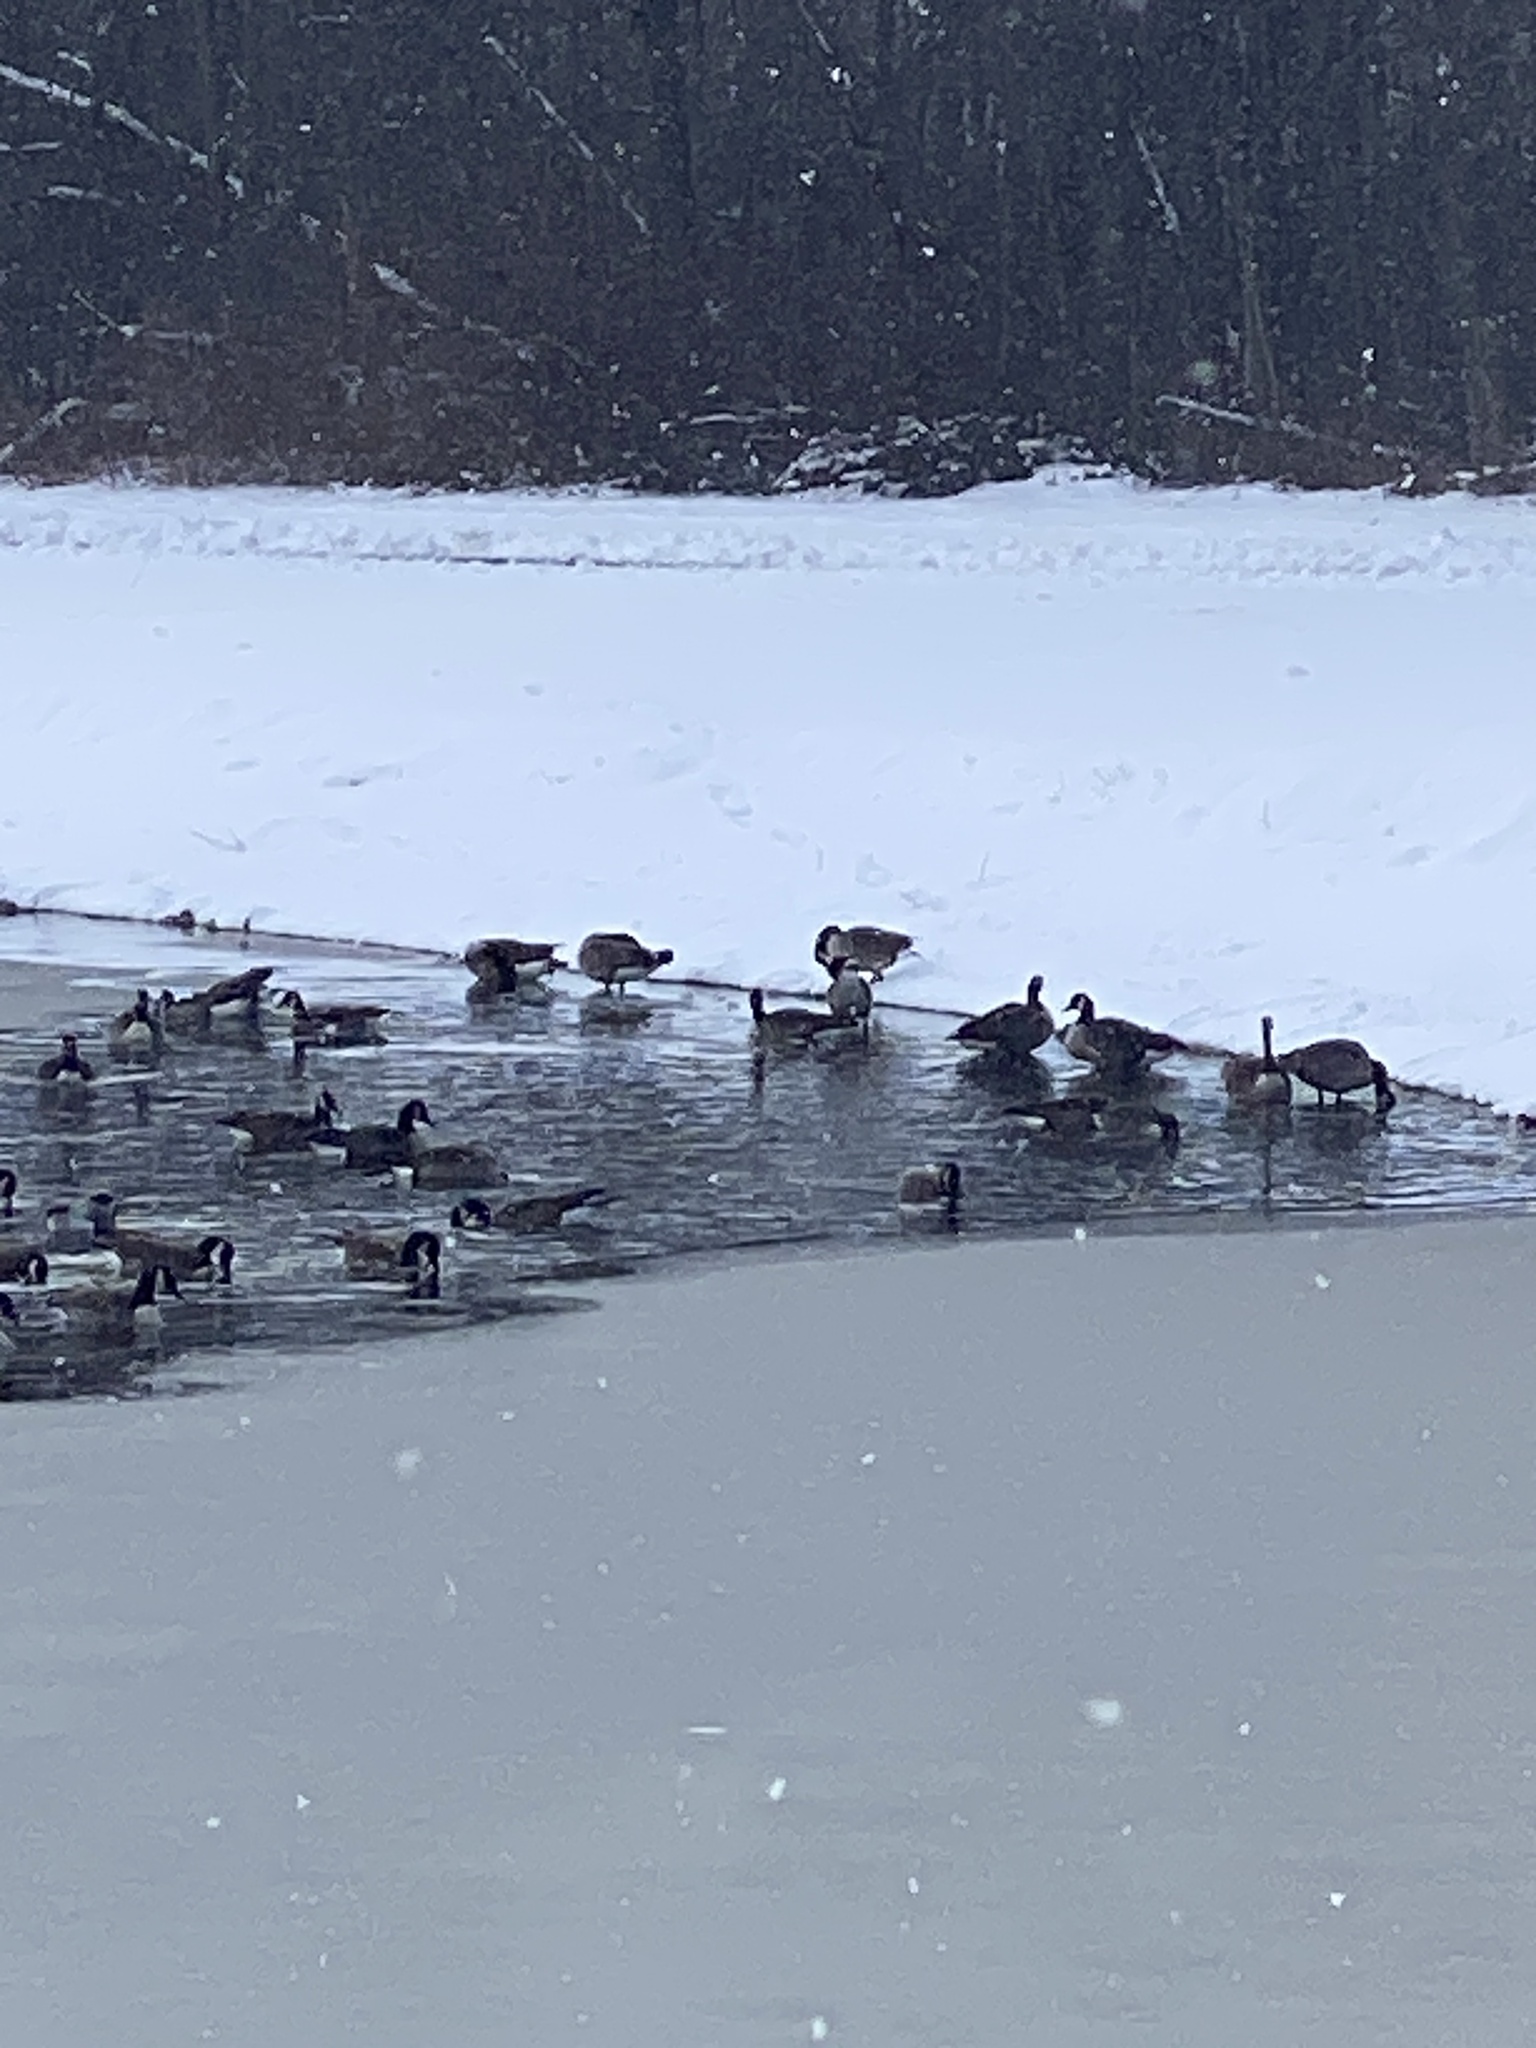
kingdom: Animalia
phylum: Chordata
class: Aves
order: Anseriformes
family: Anatidae
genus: Branta
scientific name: Branta canadensis
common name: Canada goose
